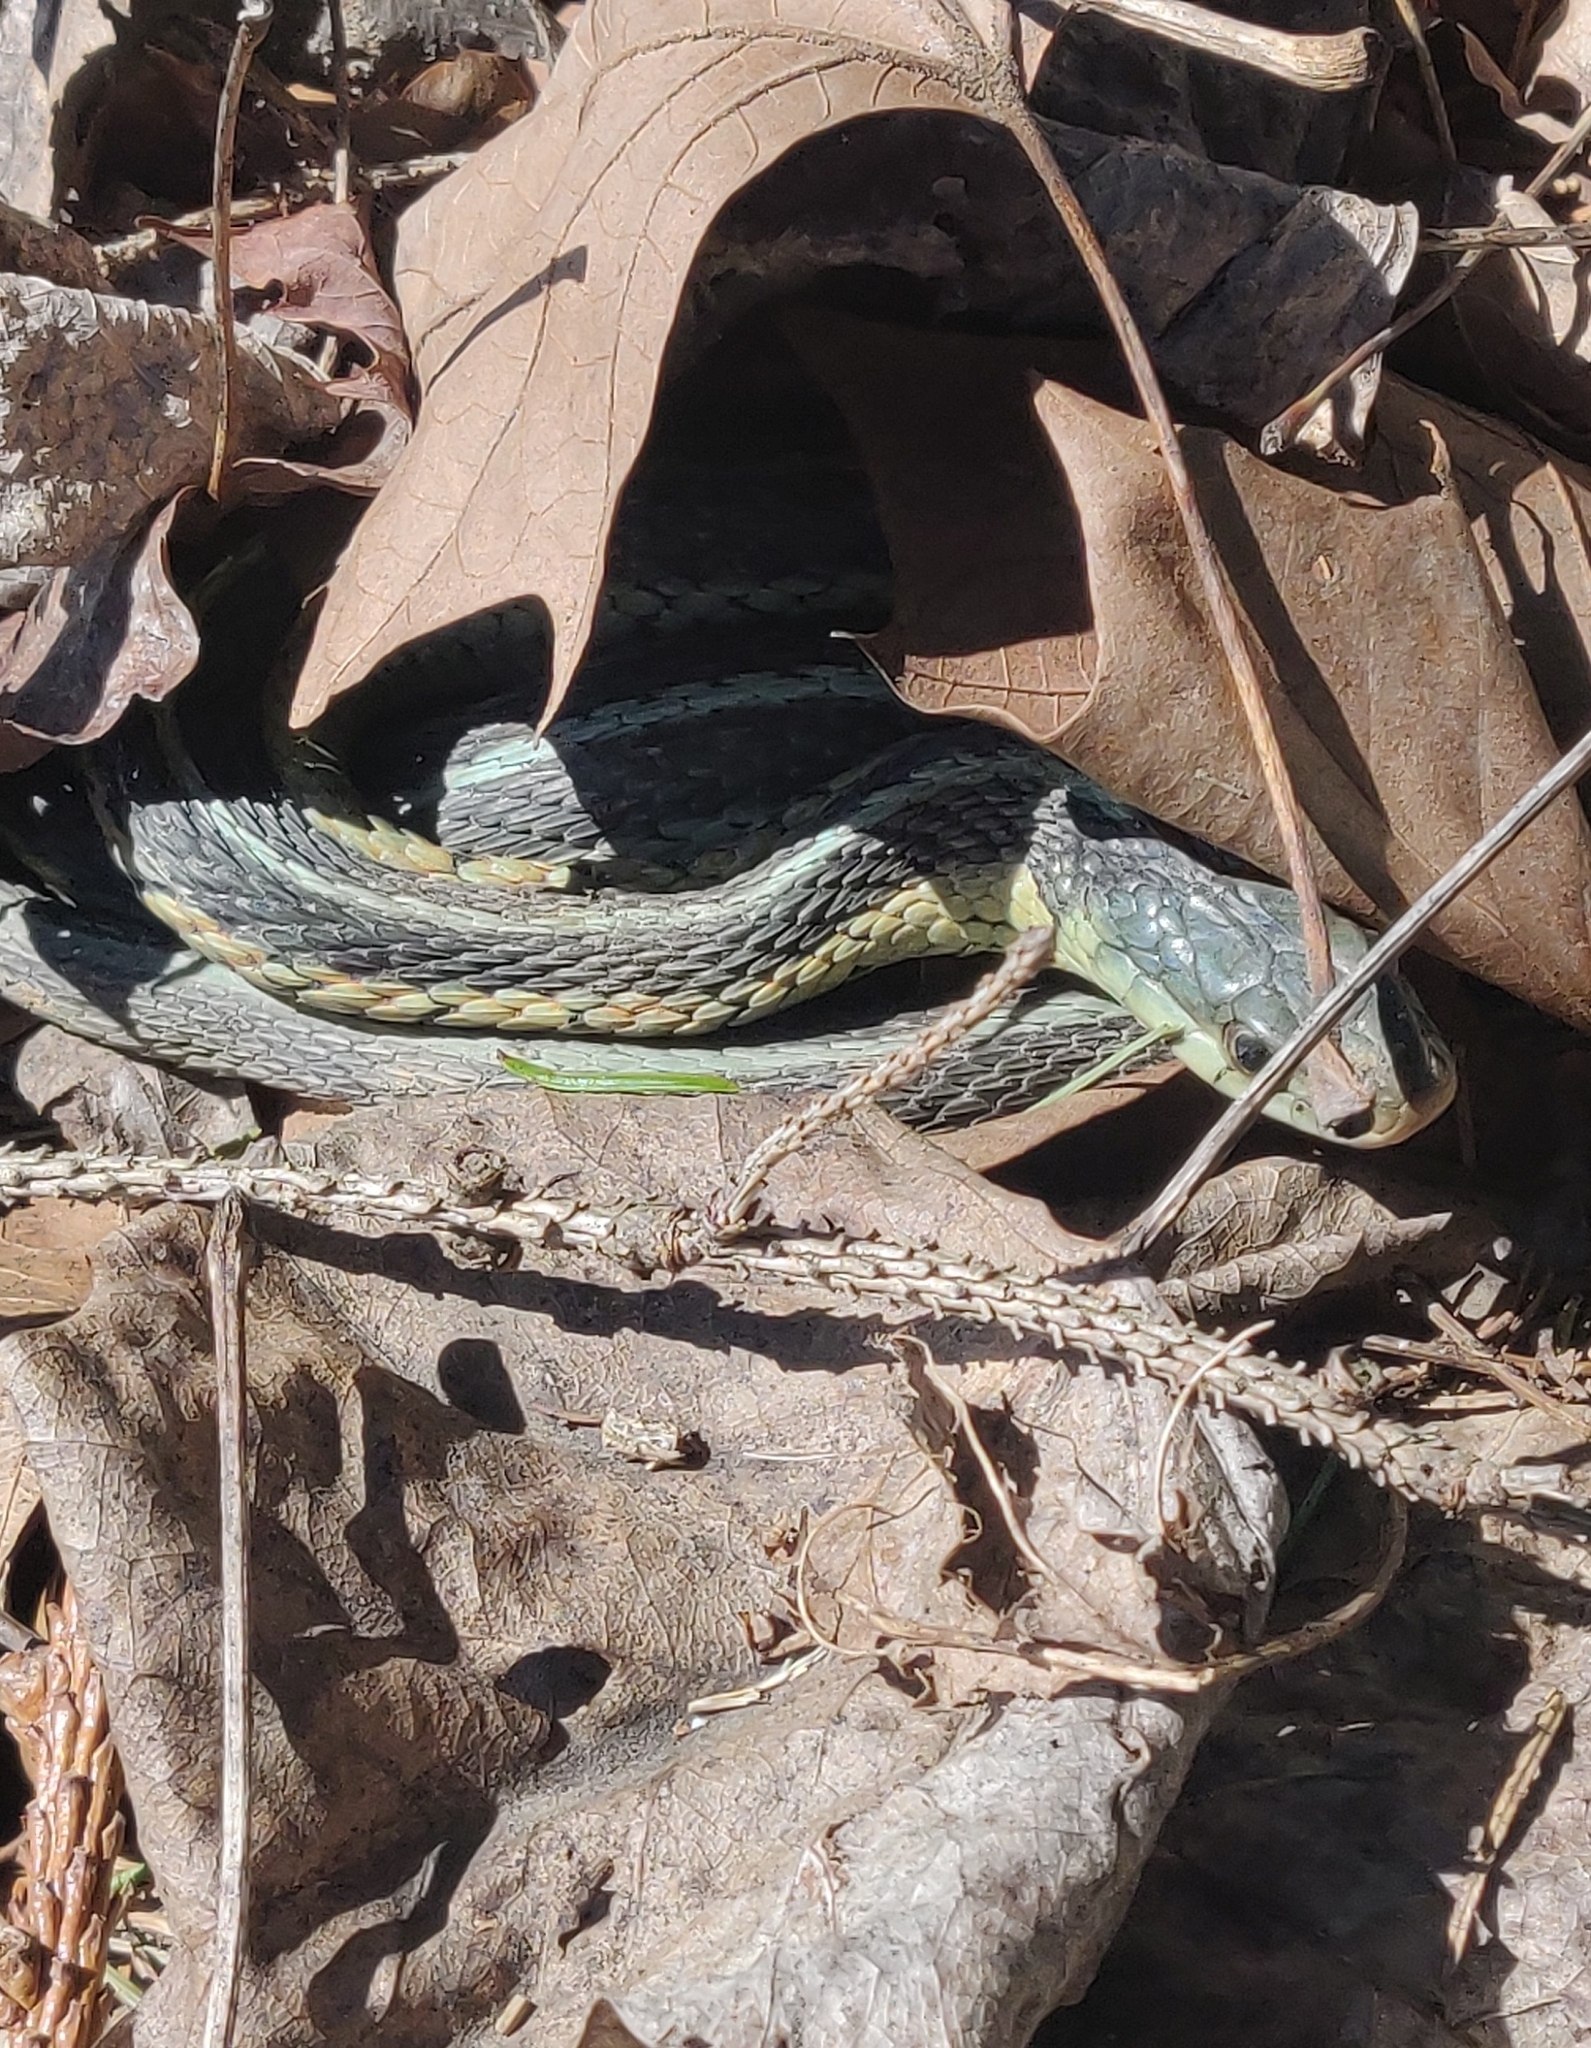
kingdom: Animalia
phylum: Chordata
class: Squamata
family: Colubridae
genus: Thamnophis
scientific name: Thamnophis sirtalis
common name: Common garter snake
